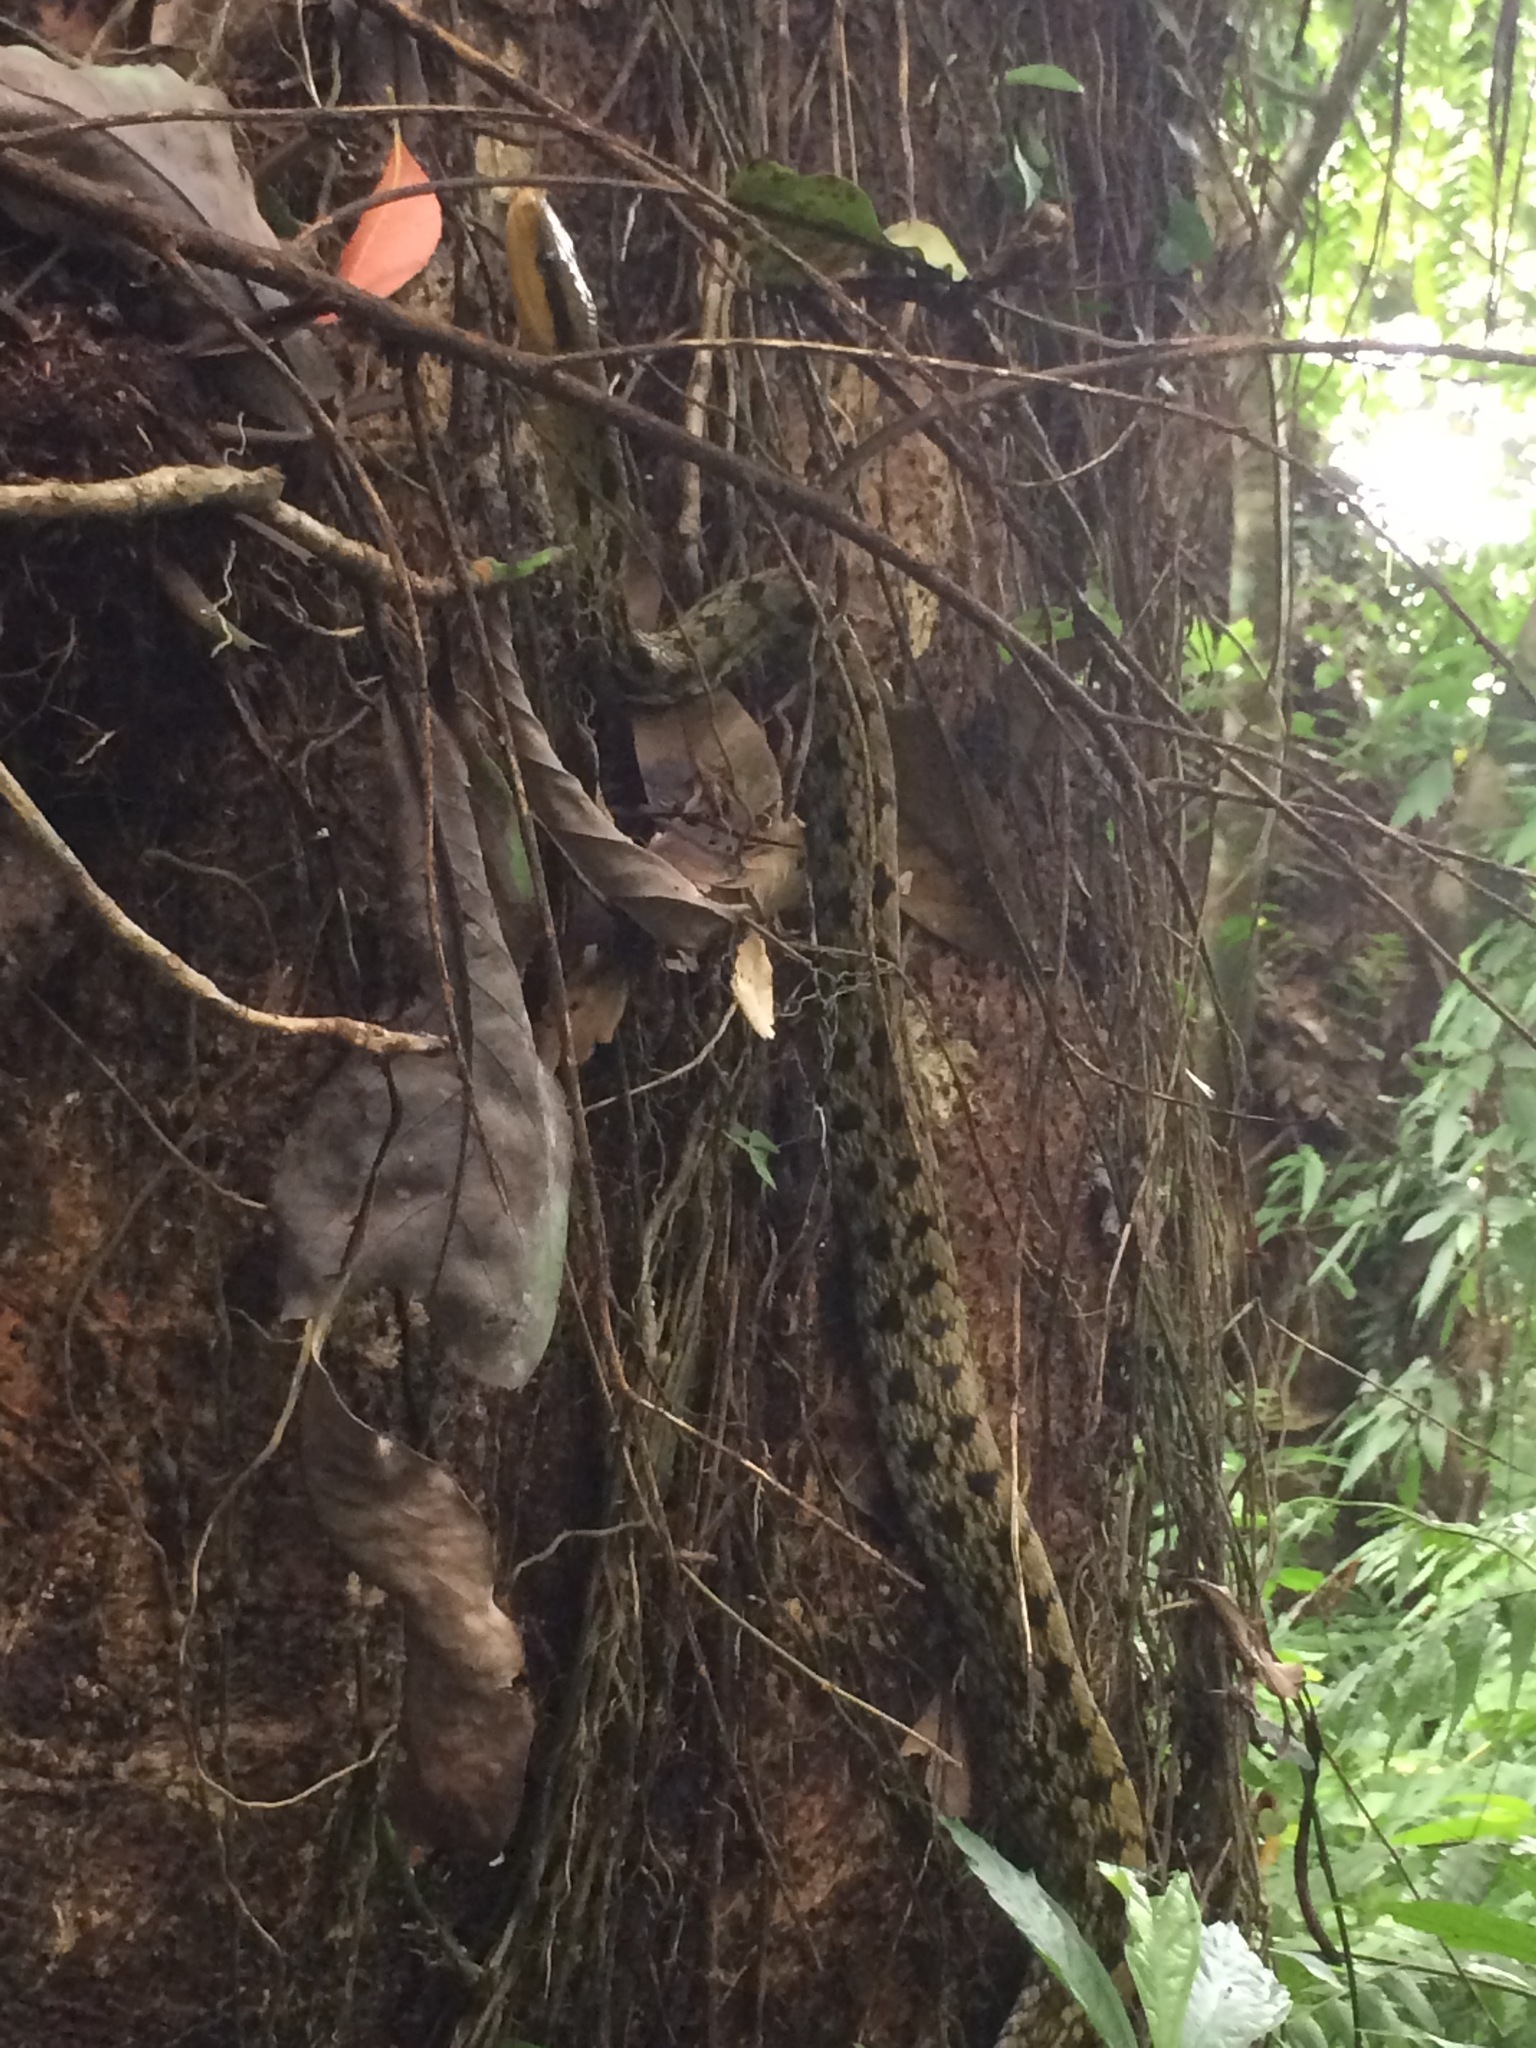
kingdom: Animalia
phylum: Chordata
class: Squamata
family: Colubridae
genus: Elaphe
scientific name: Elaphe taeniura
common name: Beauty snake
